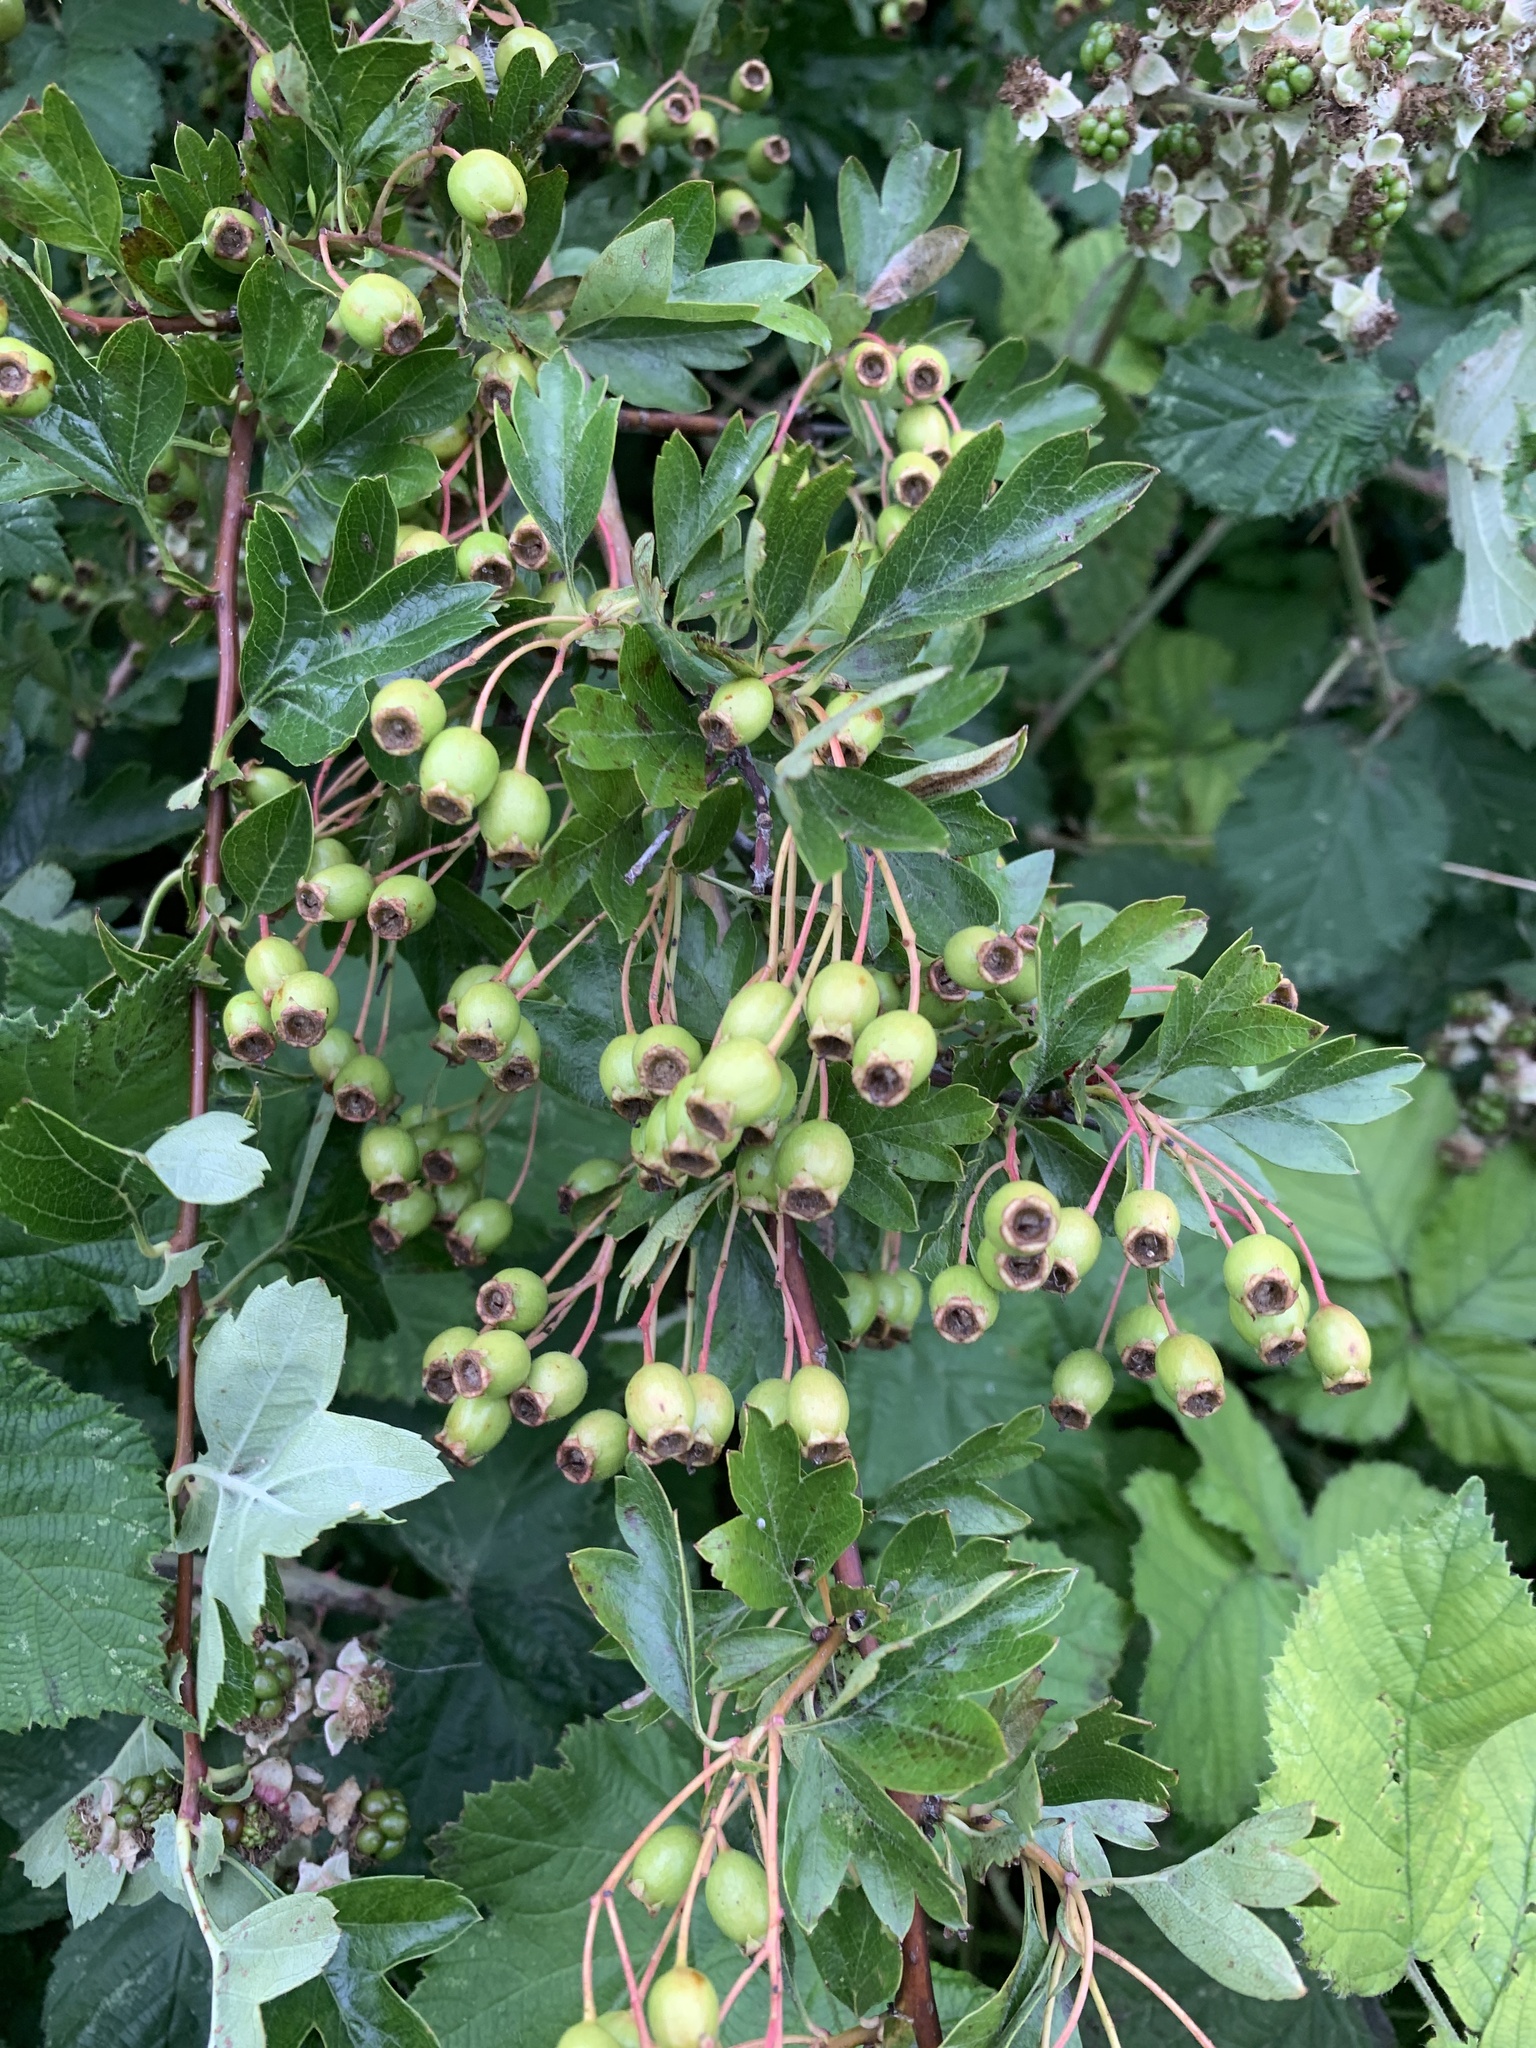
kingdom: Plantae
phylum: Tracheophyta
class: Magnoliopsida
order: Rosales
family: Rosaceae
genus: Crataegus
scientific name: Crataegus monogyna
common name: Hawthorn
